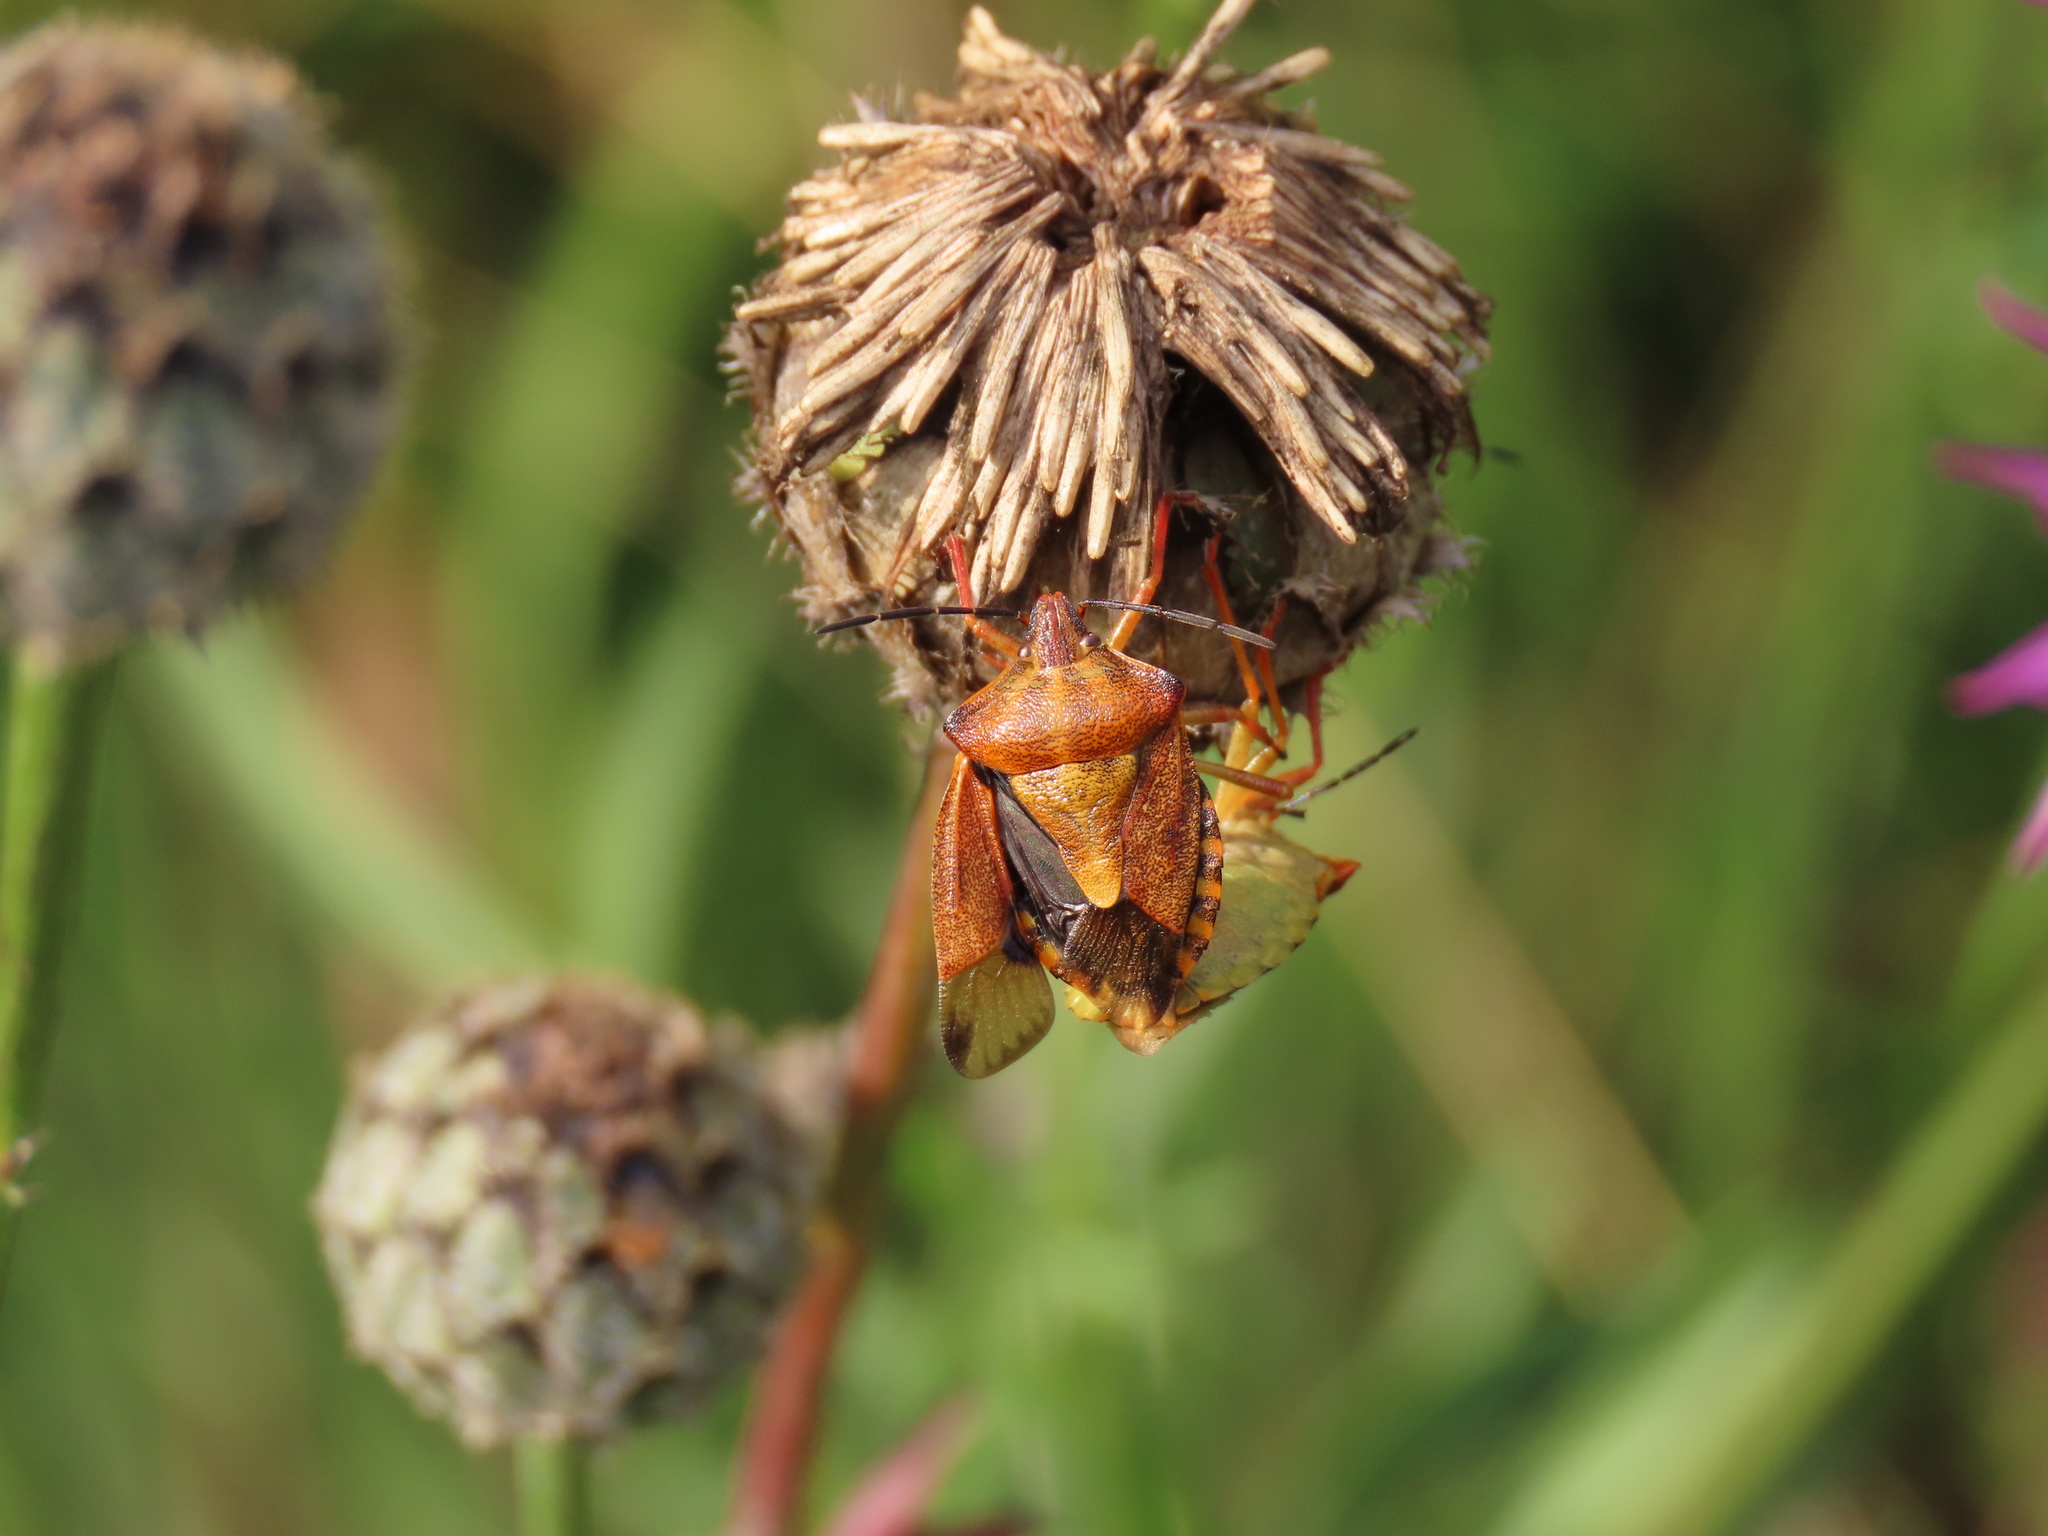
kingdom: Animalia
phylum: Arthropoda
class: Insecta
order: Hemiptera
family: Pentatomidae
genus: Carpocoris
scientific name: Carpocoris purpureipennis
